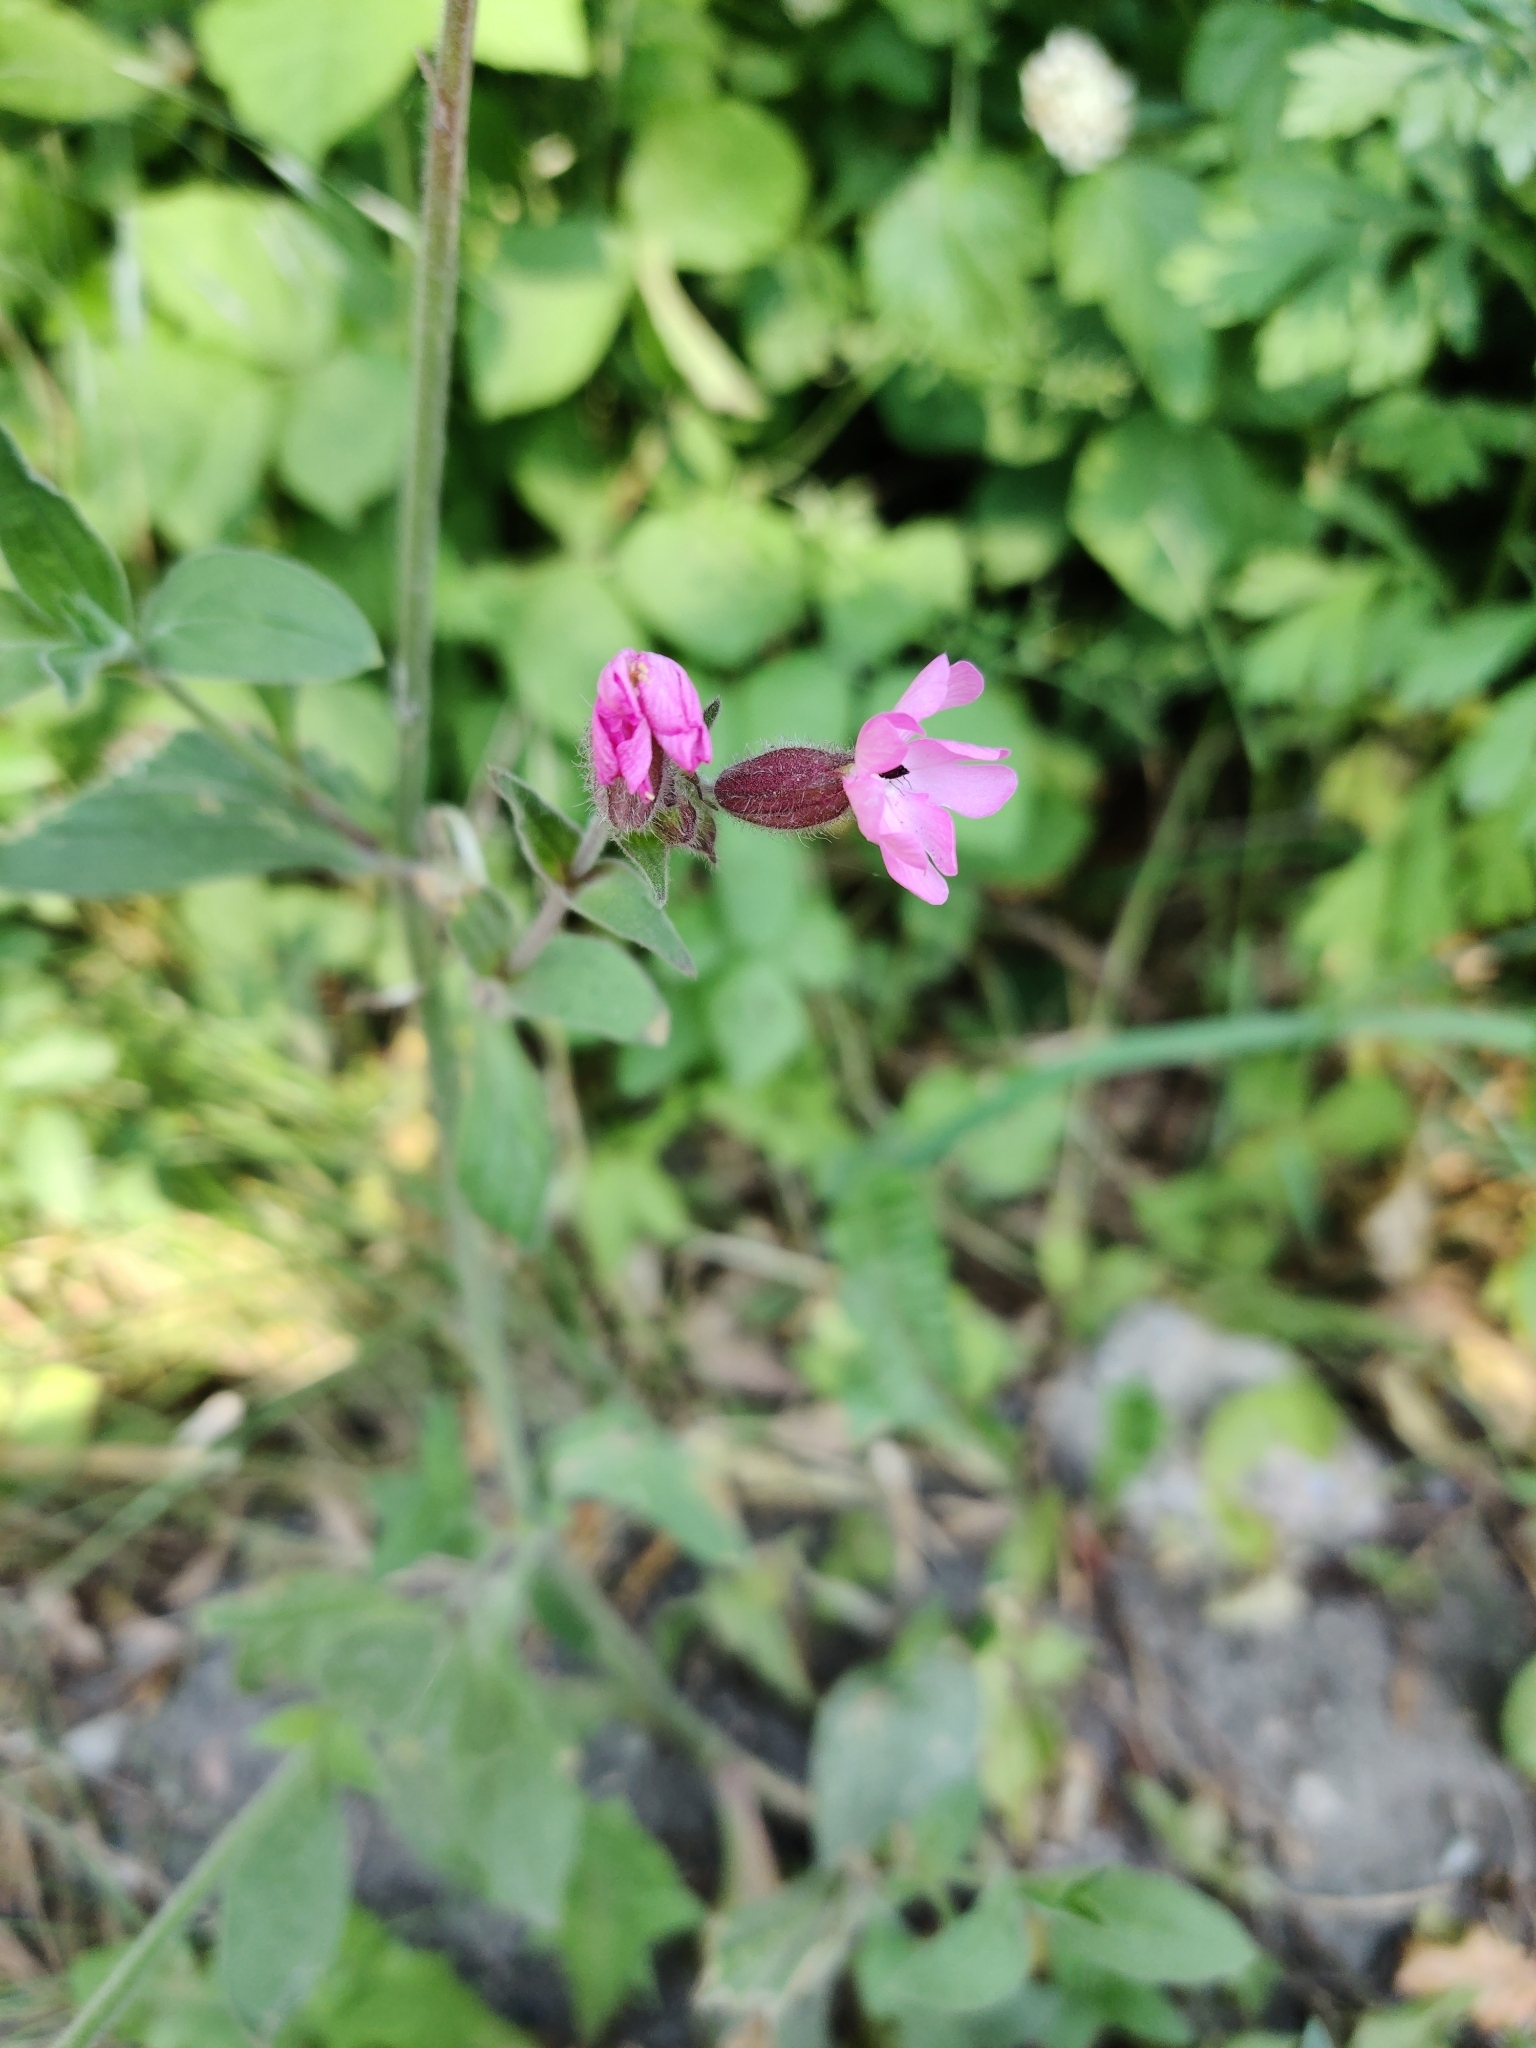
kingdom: Plantae
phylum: Tracheophyta
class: Magnoliopsida
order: Caryophyllales
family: Caryophyllaceae
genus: Silene
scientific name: Silene dioica
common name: Red campion
